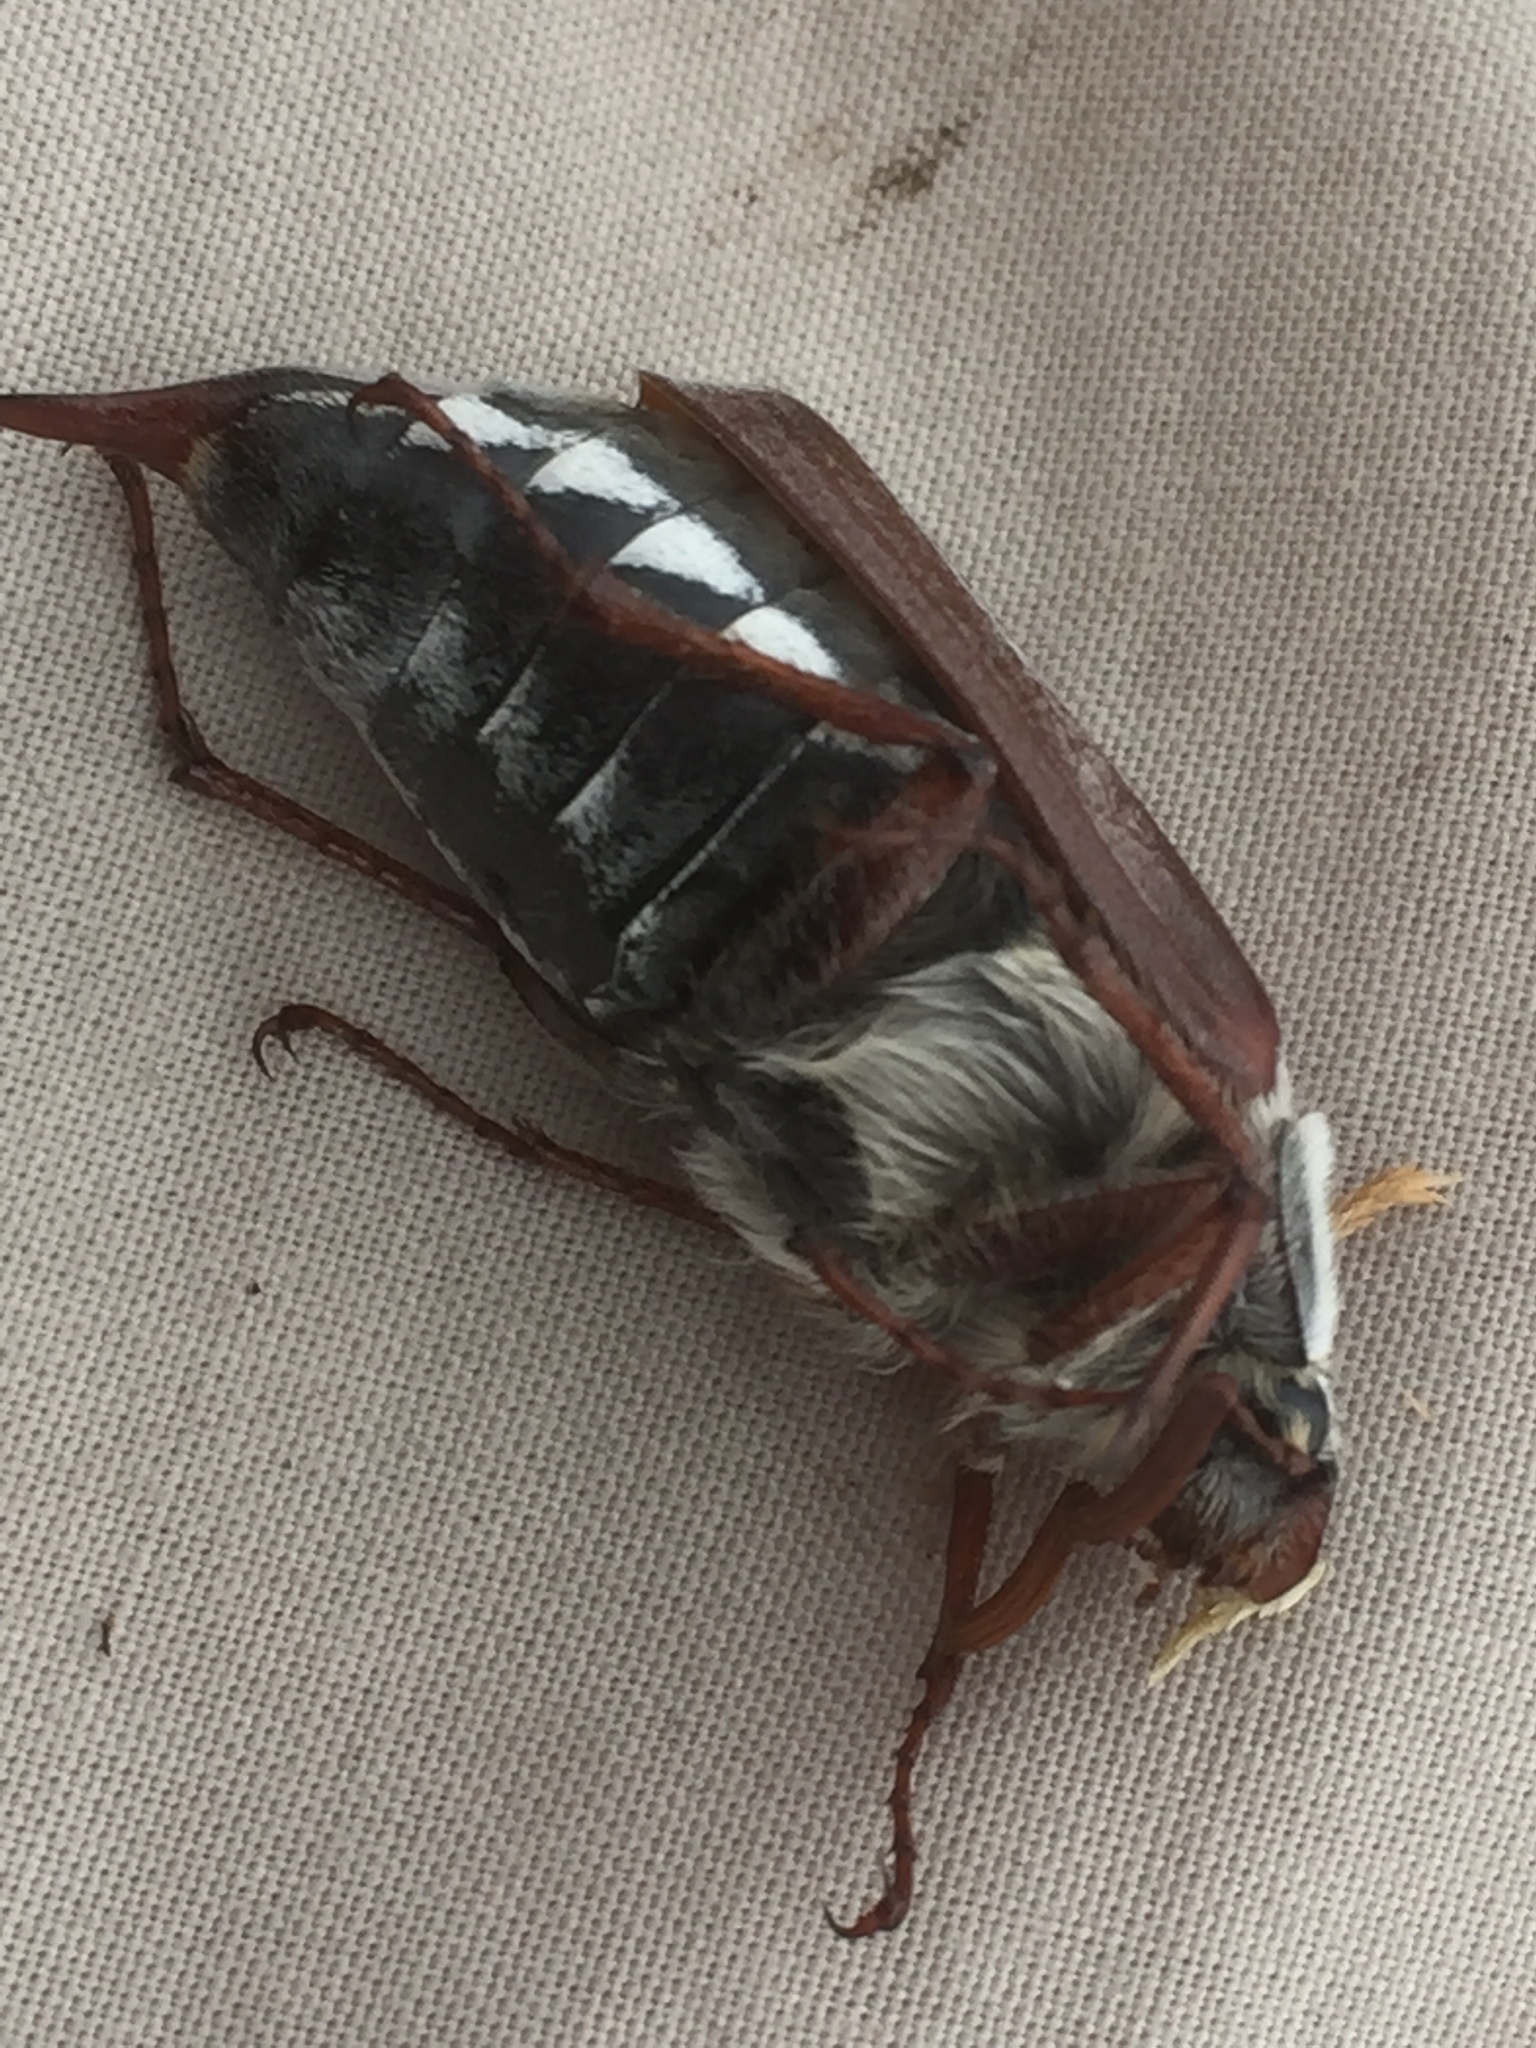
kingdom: Animalia
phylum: Arthropoda
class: Insecta
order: Coleoptera
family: Scarabaeidae
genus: Melolontha
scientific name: Melolontha melolontha
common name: Cockchafer maybeetle
